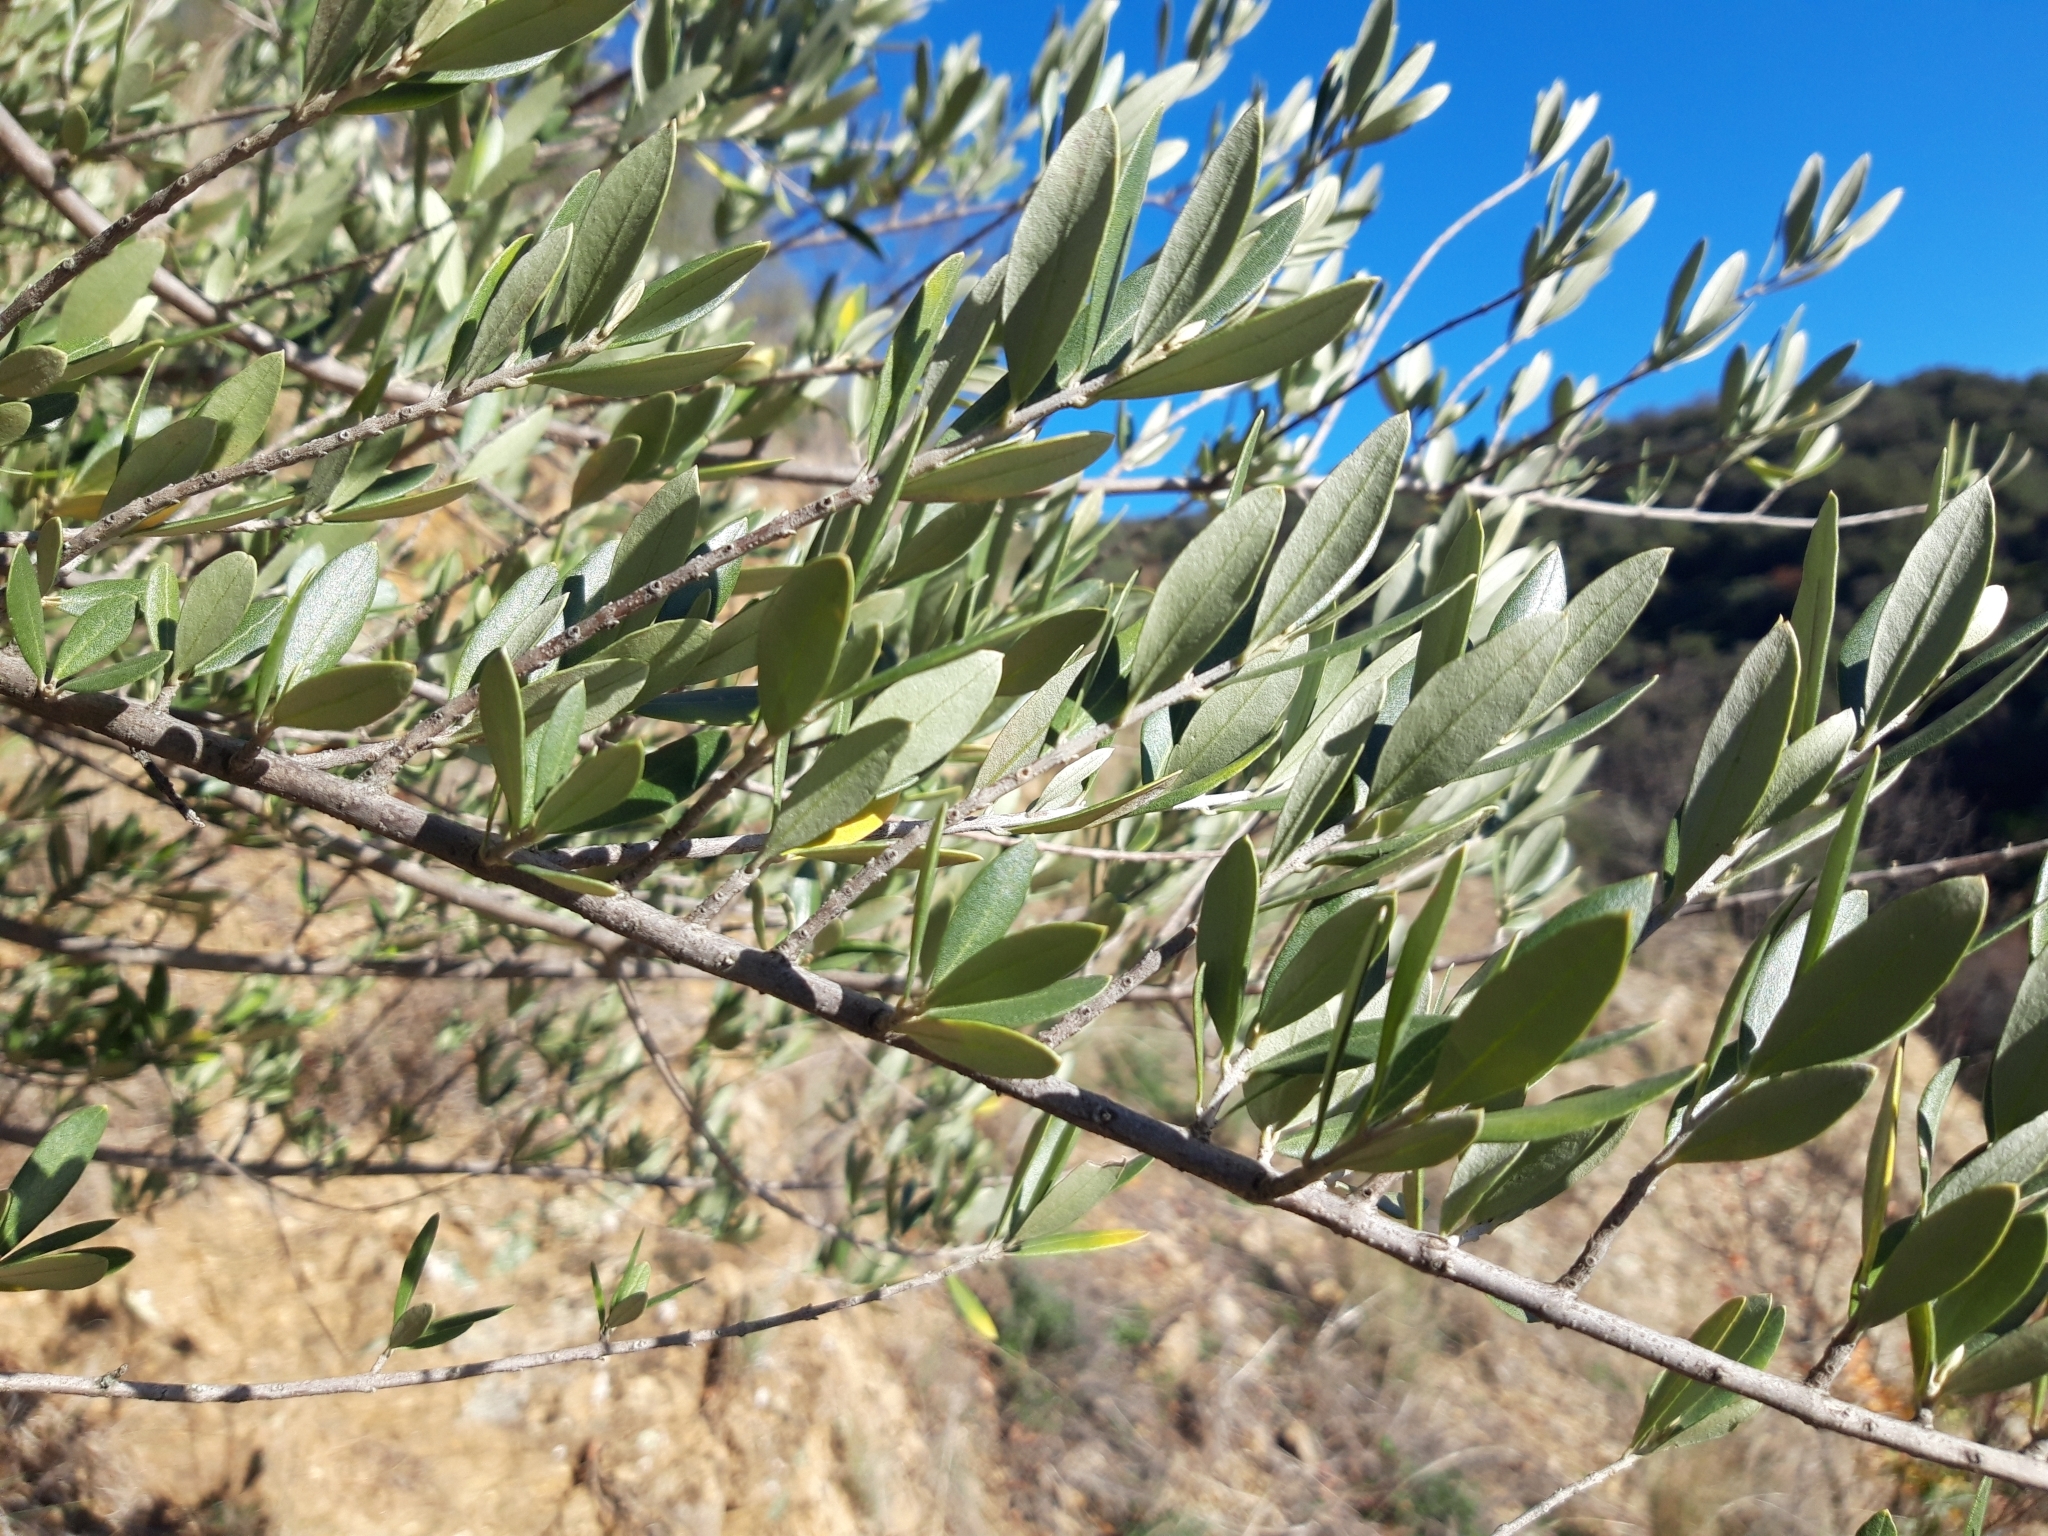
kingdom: Plantae
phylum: Tracheophyta
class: Magnoliopsida
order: Lamiales
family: Oleaceae
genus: Olea
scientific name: Olea europaea
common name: Olive
